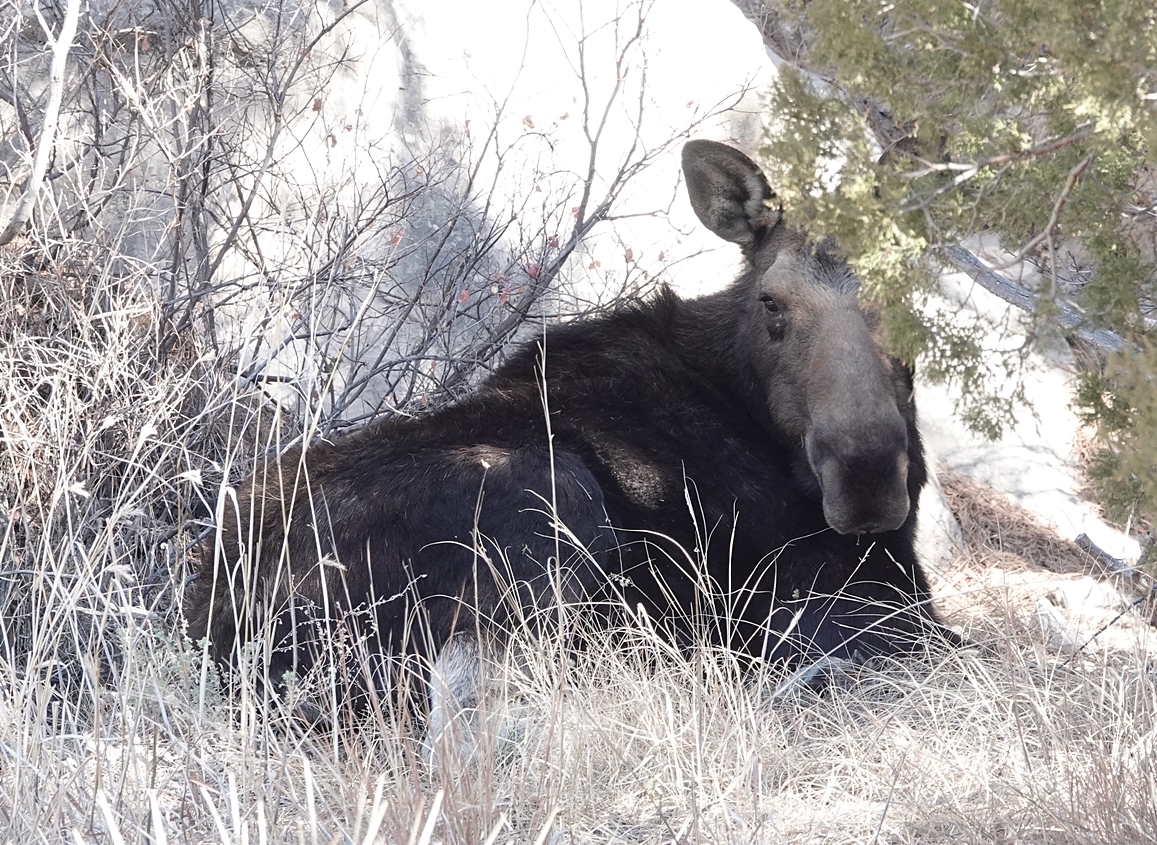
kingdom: Animalia
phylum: Chordata
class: Mammalia
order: Artiodactyla
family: Cervidae
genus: Alces
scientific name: Alces alces
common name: Moose
